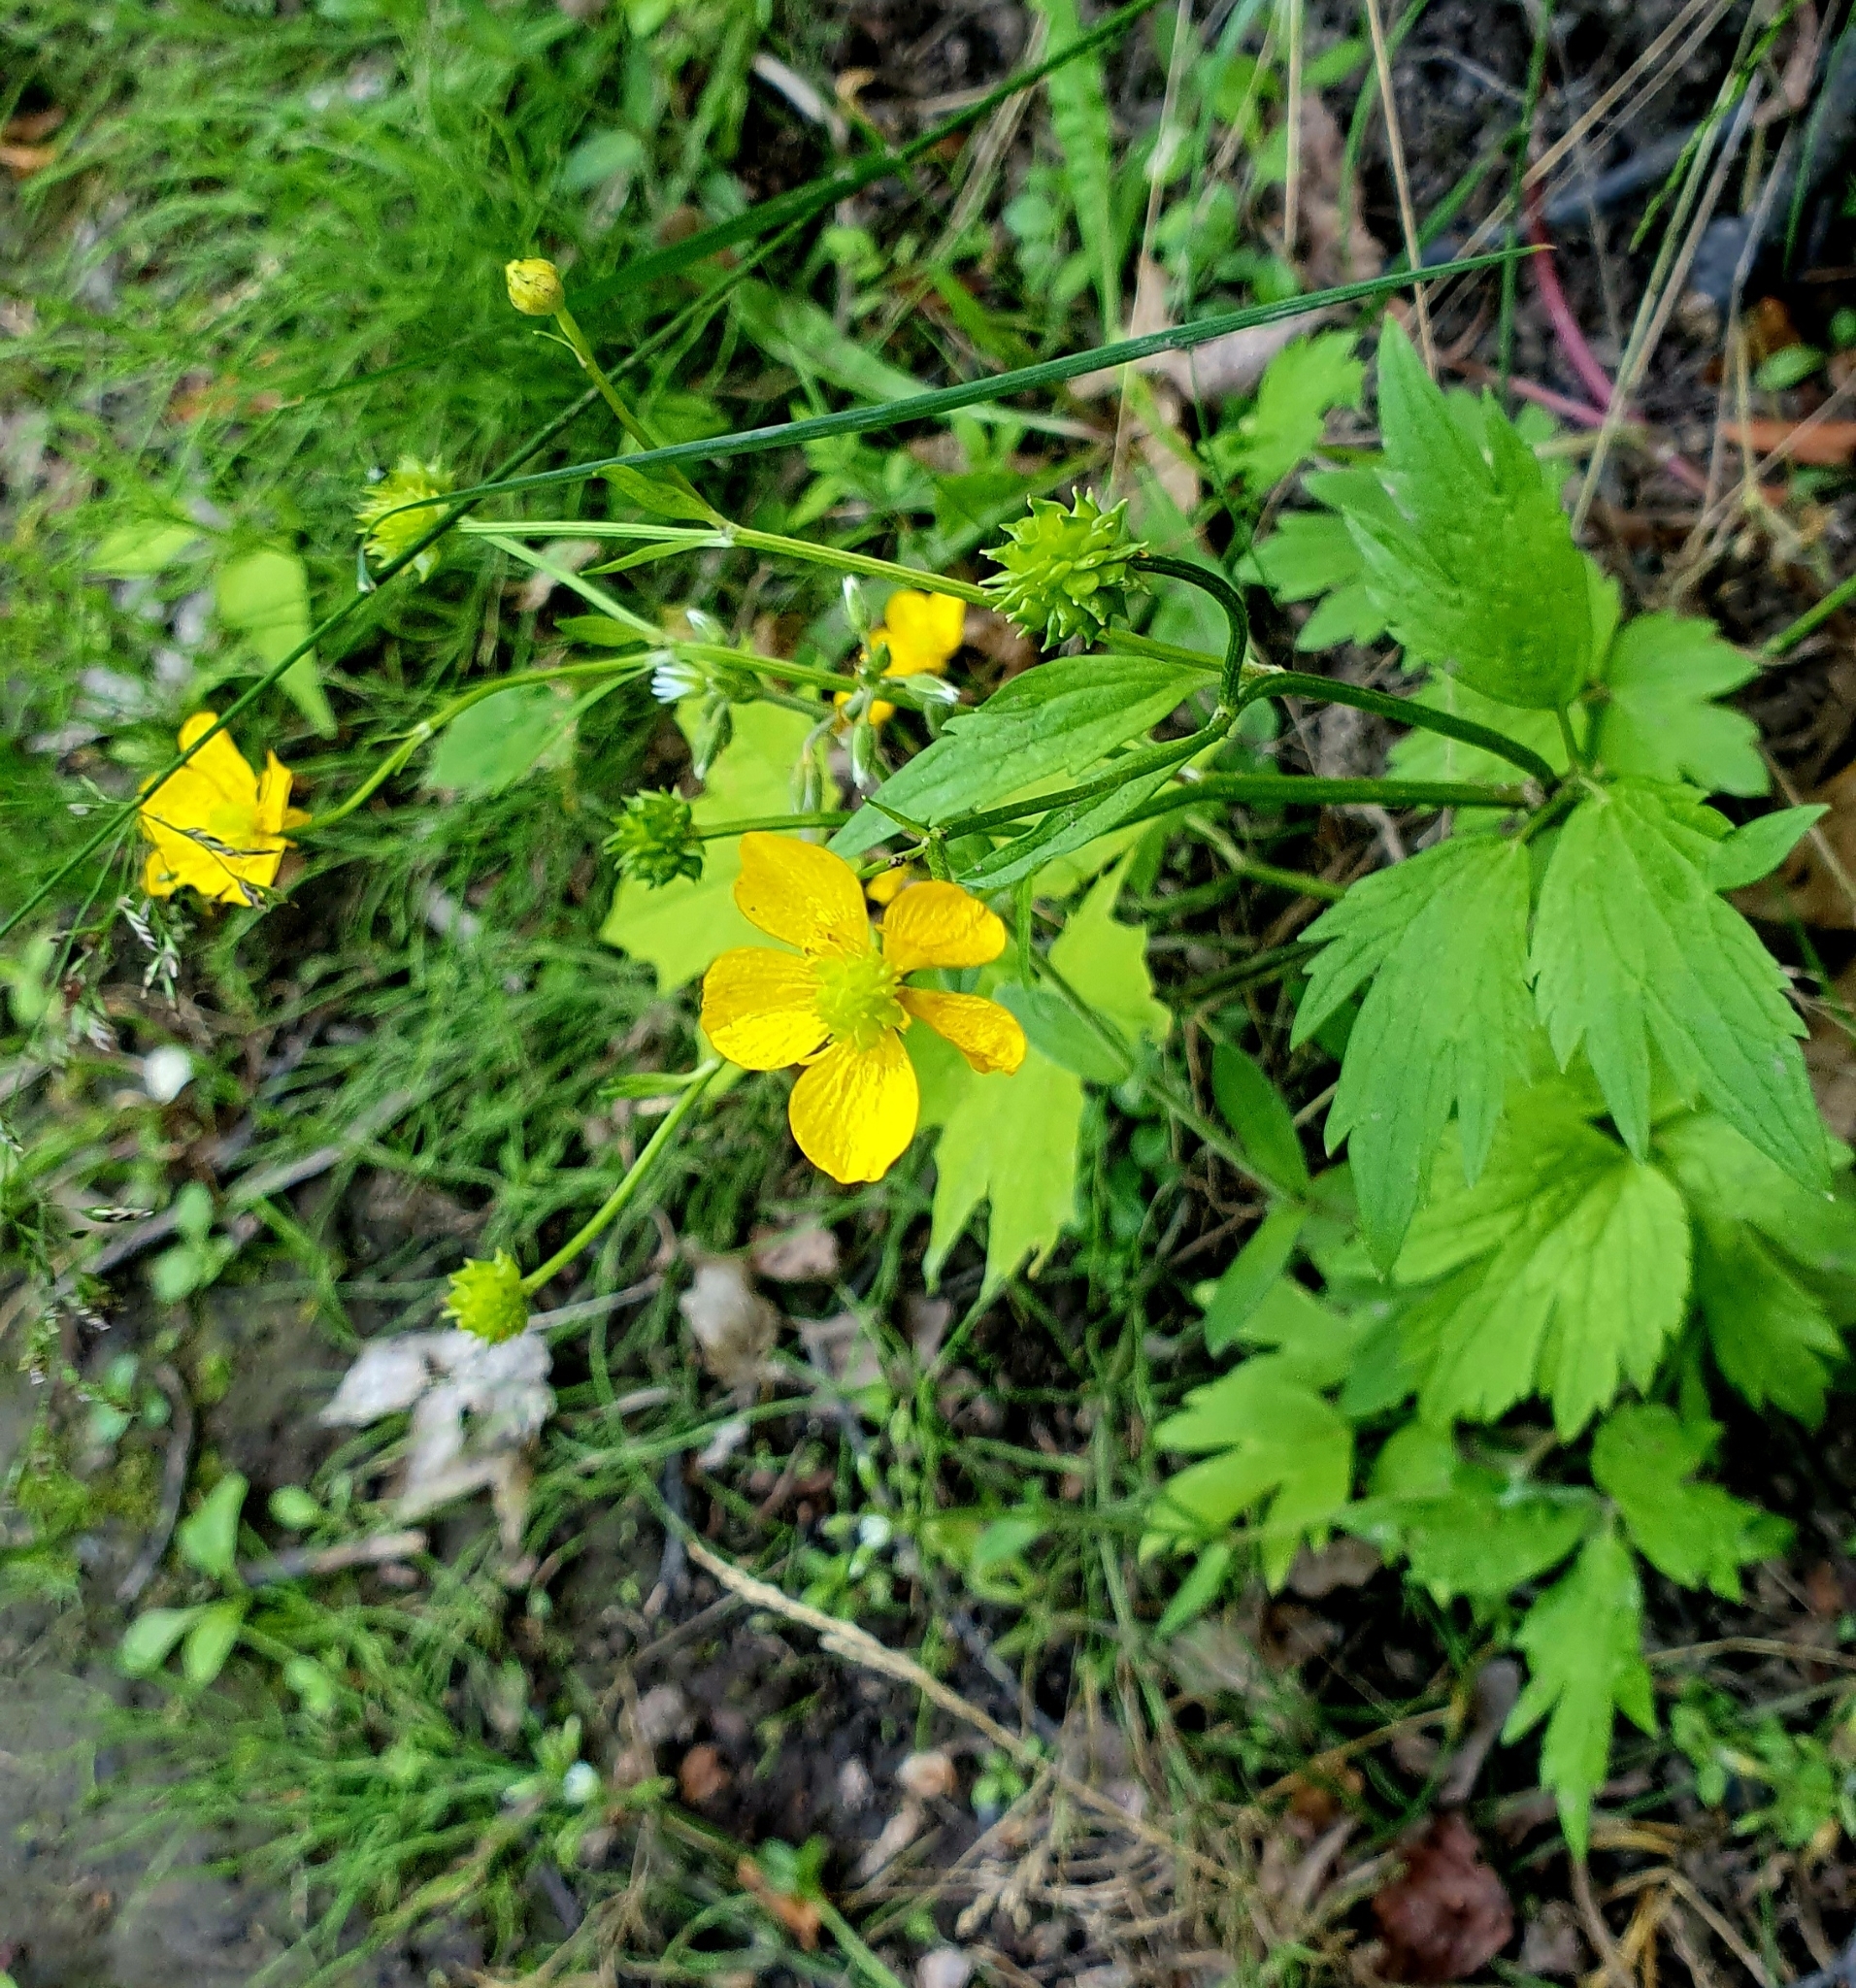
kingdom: Plantae
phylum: Tracheophyta
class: Magnoliopsida
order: Ranunculales
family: Ranunculaceae
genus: Ranunculus
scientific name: Ranunculus repens
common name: Creeping buttercup
